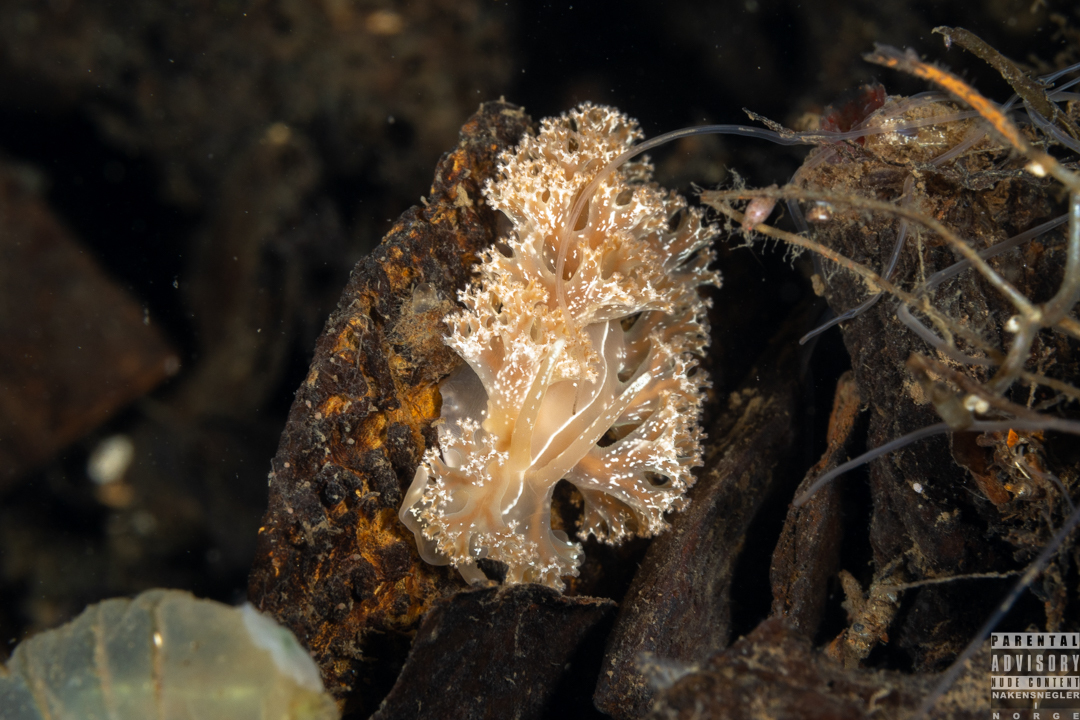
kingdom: Animalia
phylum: Mollusca
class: Gastropoda
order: Nudibranchia
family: Heroidae
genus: Hero
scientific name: Hero formosa
